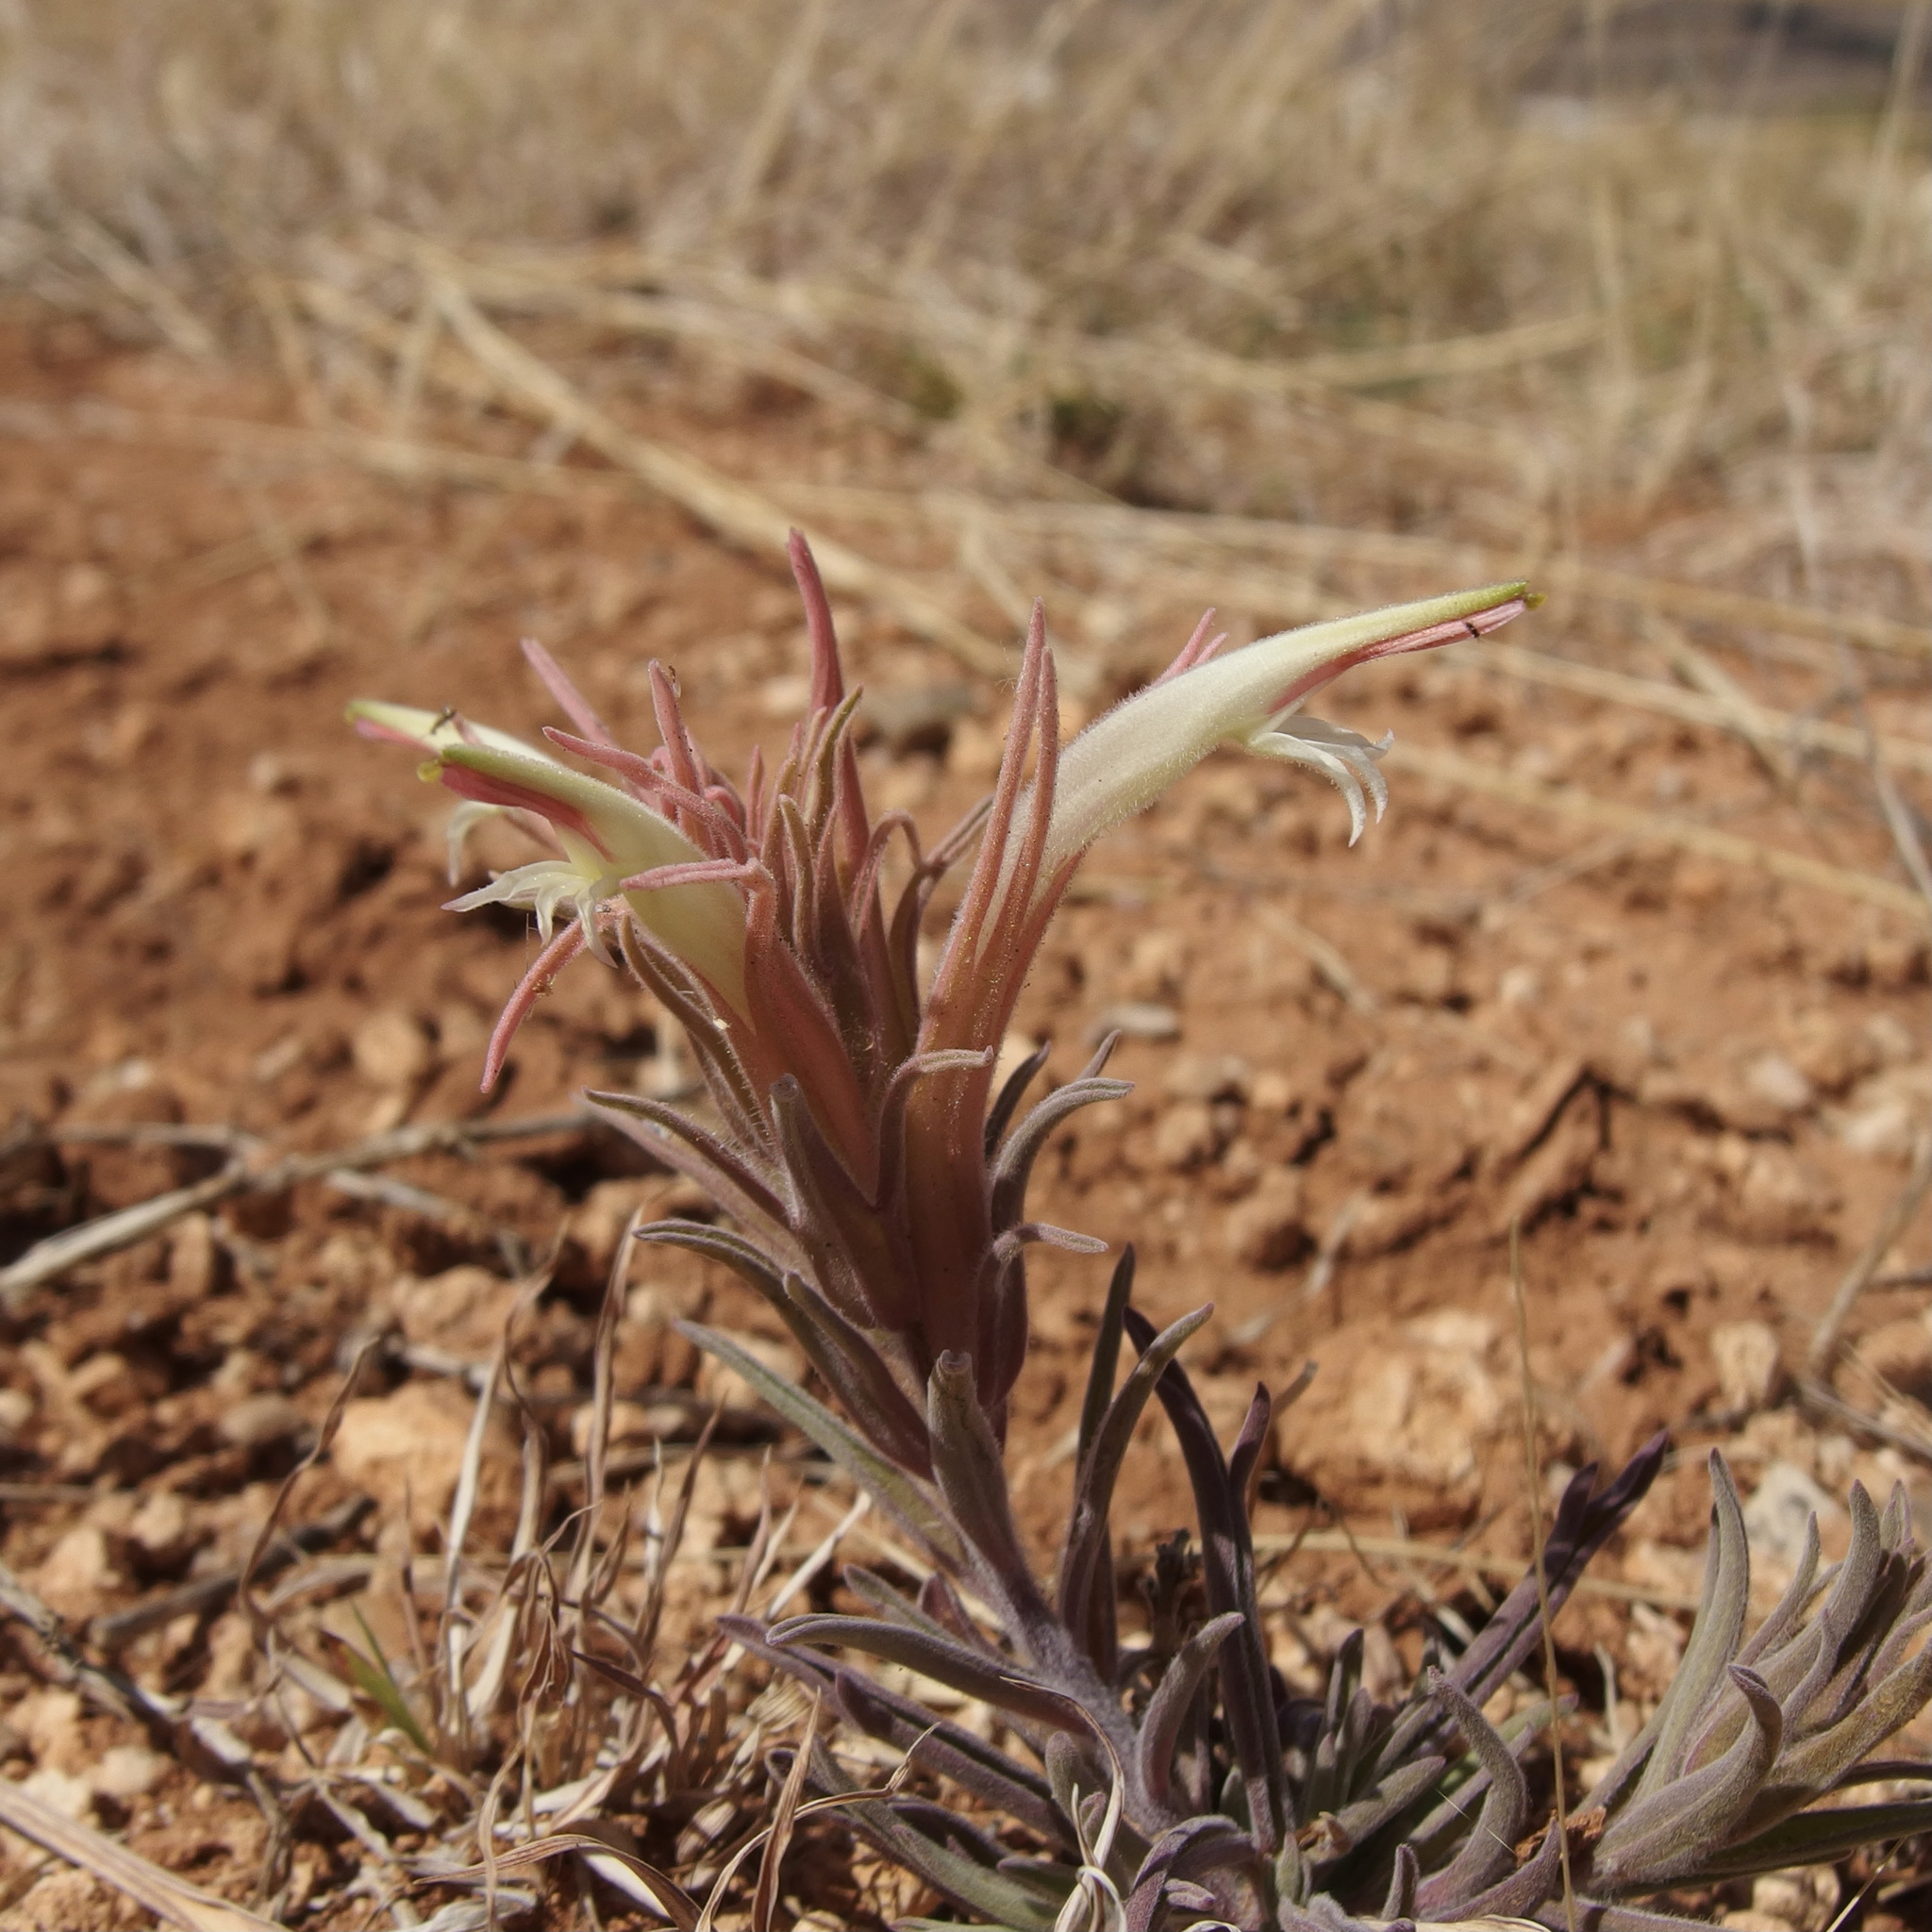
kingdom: Plantae
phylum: Tracheophyta
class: Magnoliopsida
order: Lamiales
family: Orobanchaceae
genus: Castilleja
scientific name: Castilleja sessiliflora
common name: Downy paintbrush
